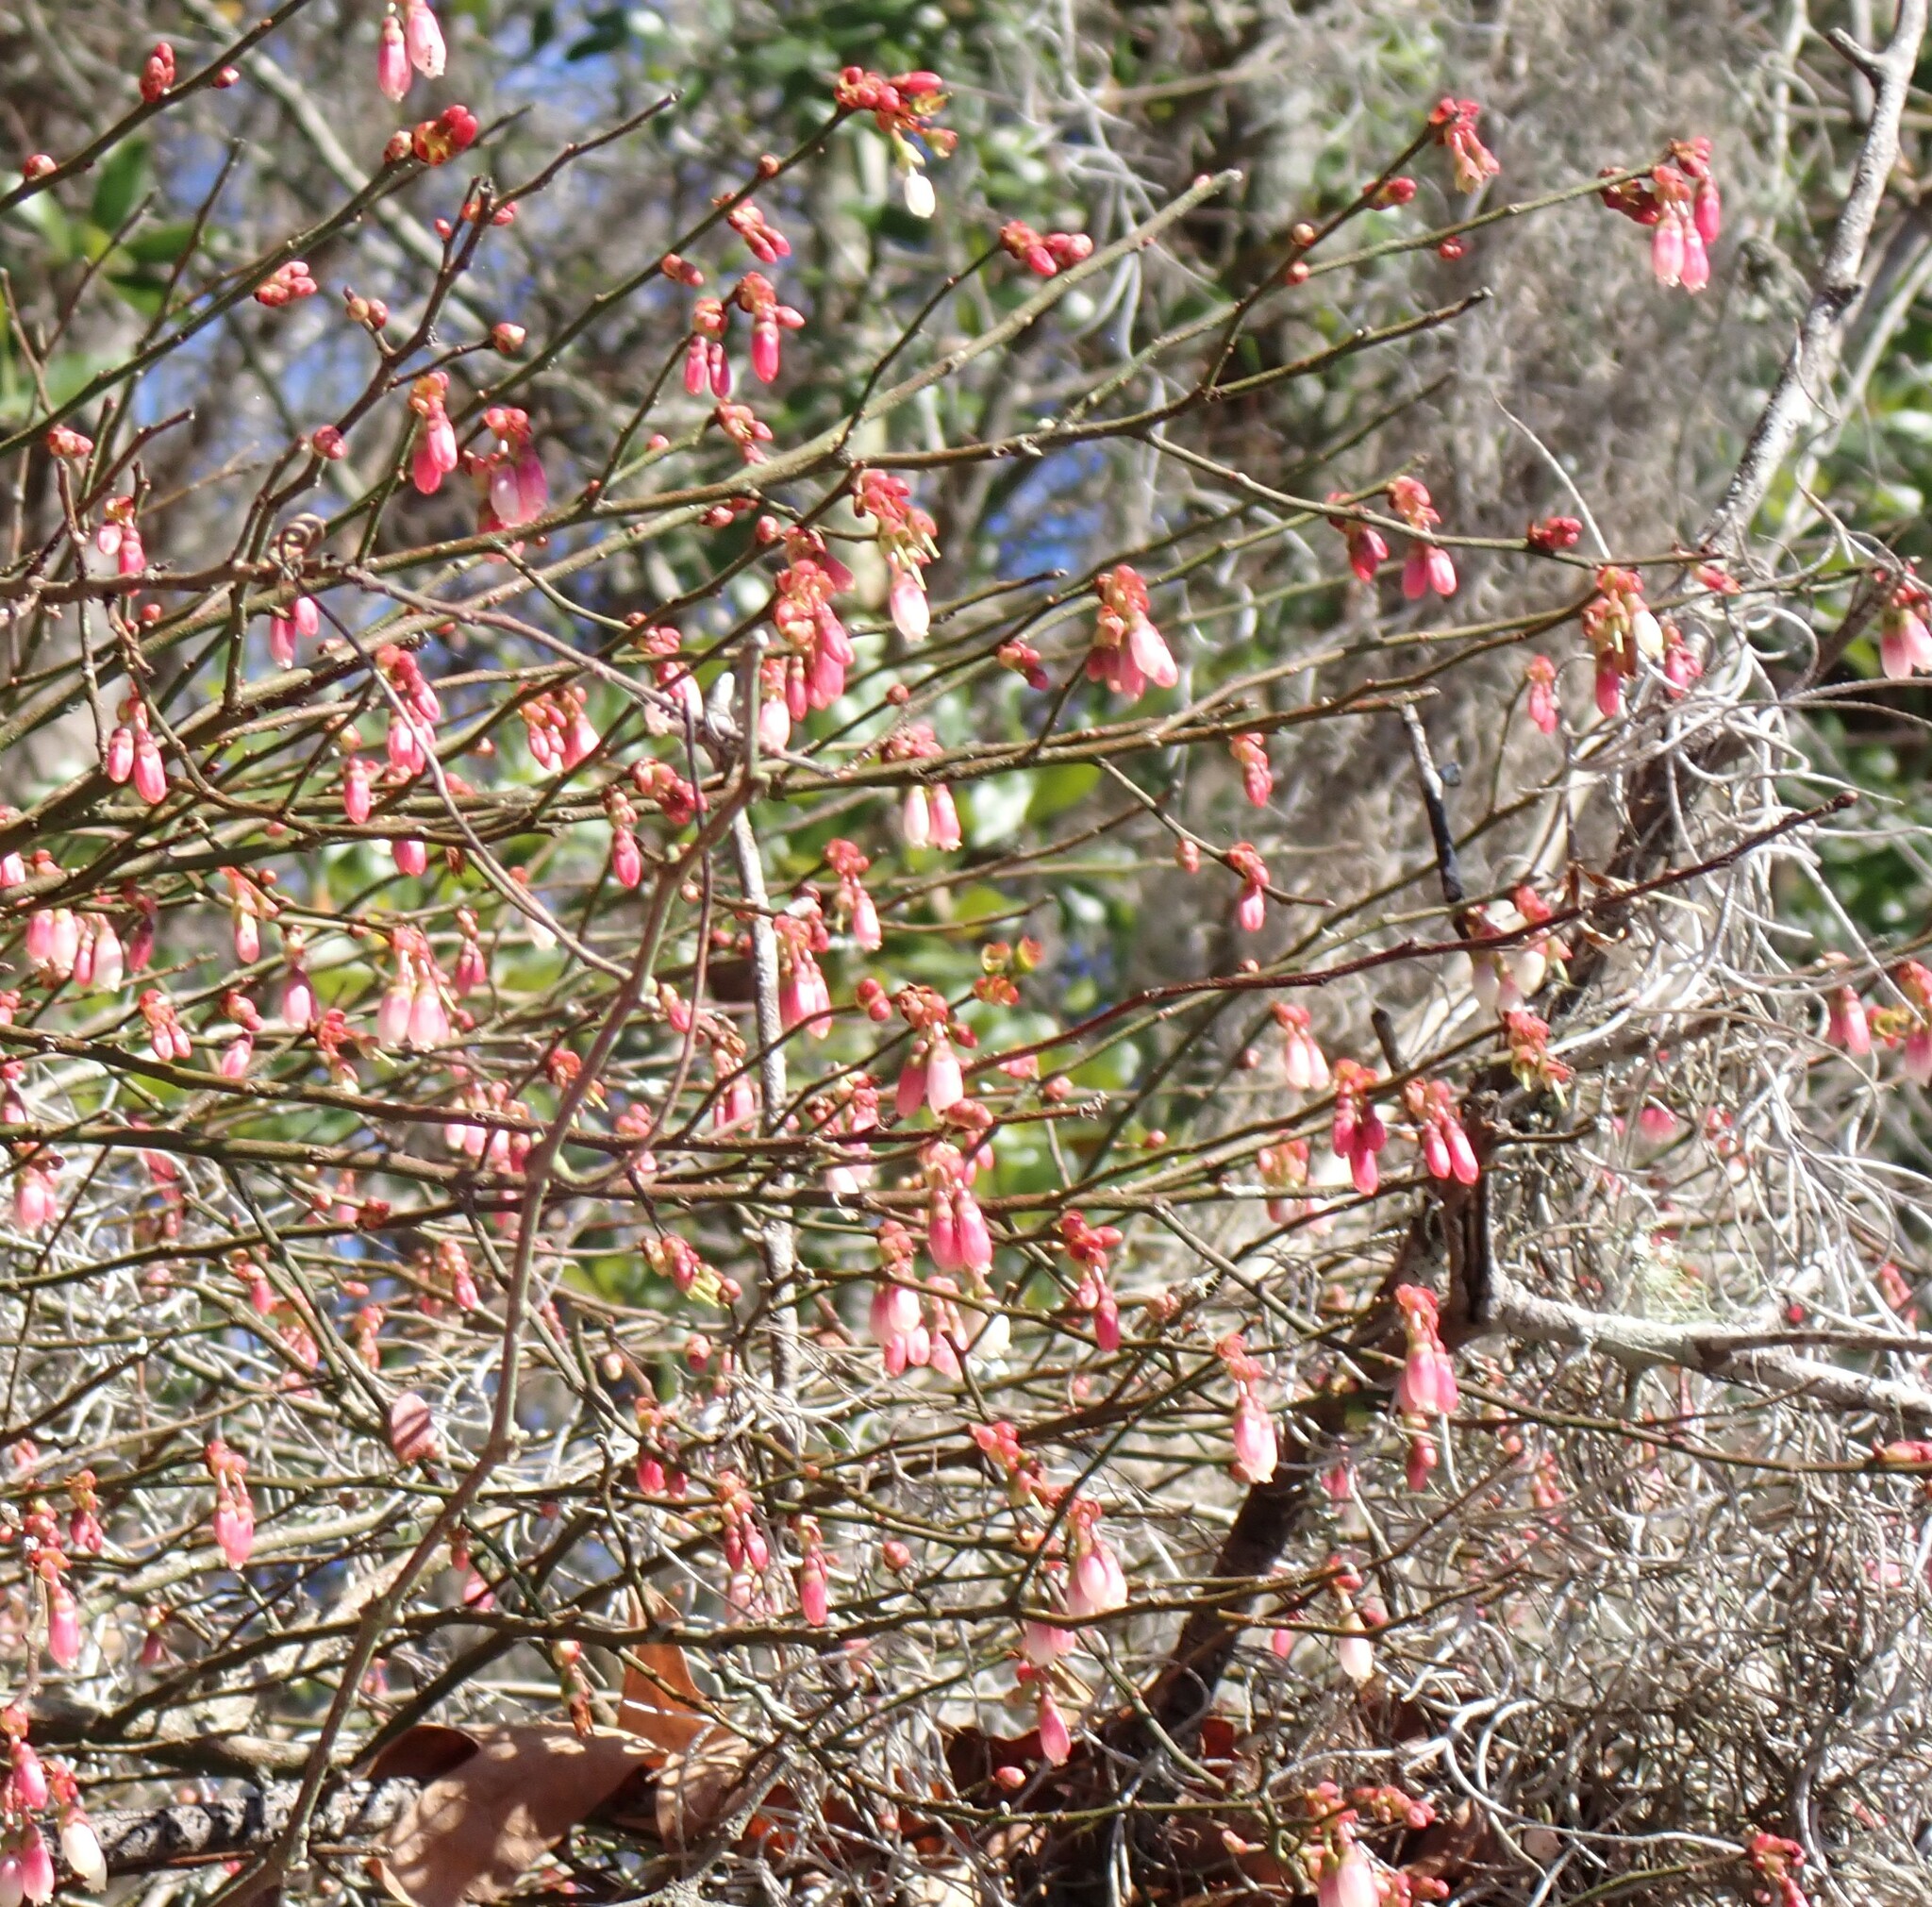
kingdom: Plantae
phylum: Tracheophyta
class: Magnoliopsida
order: Ericales
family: Ericaceae
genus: Vaccinium
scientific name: Vaccinium corymbosum
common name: Blueberry
